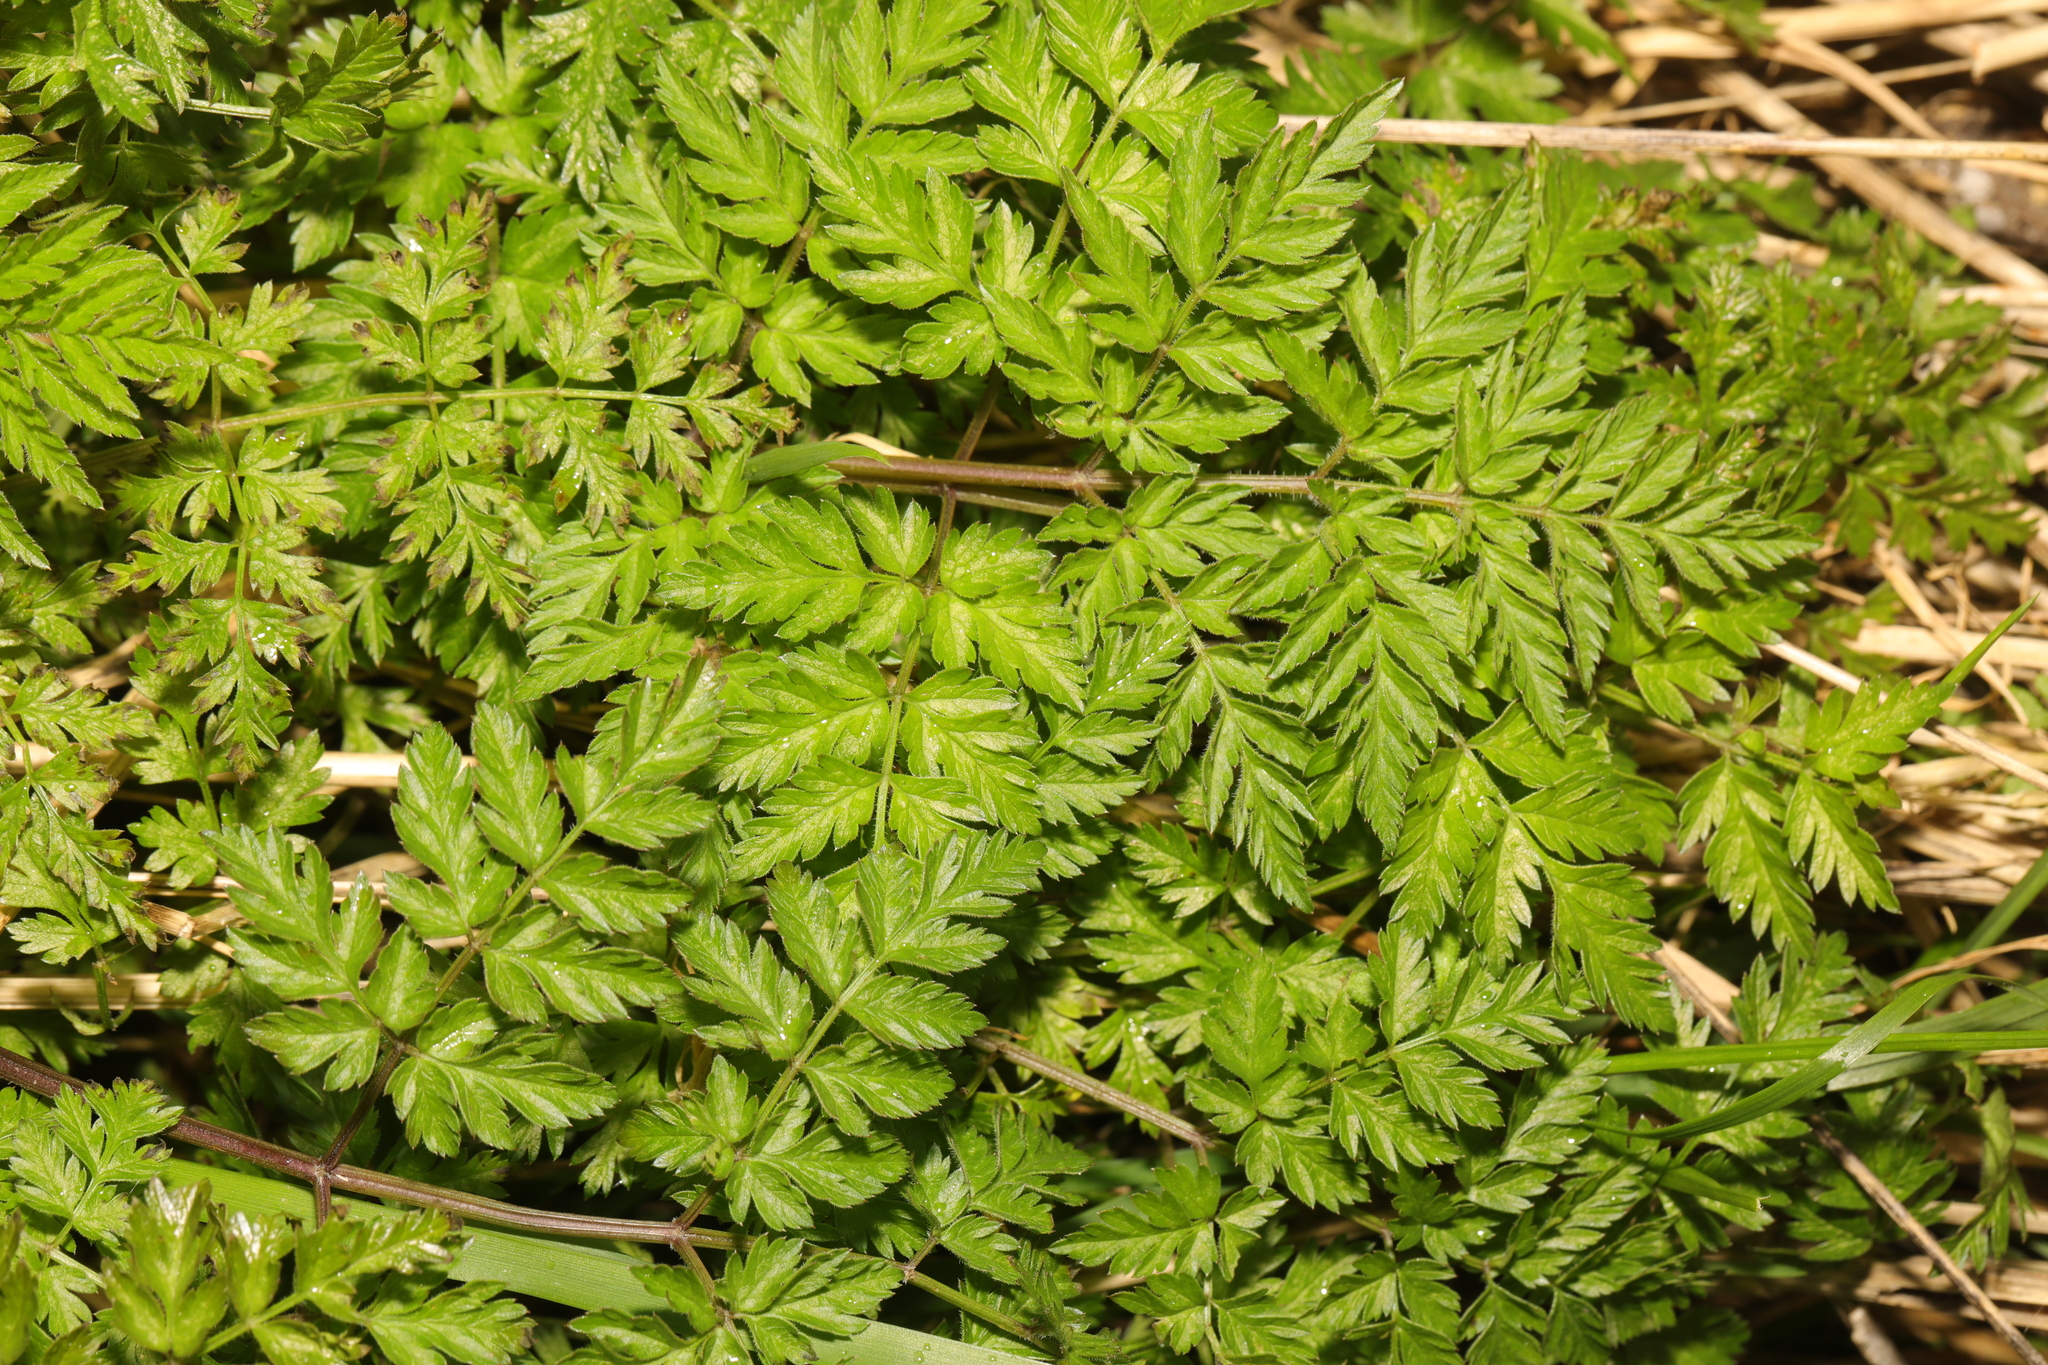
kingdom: Plantae
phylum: Tracheophyta
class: Magnoliopsida
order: Apiales
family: Apiaceae
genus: Anthriscus
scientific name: Anthriscus sylvestris
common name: Cow parsley
